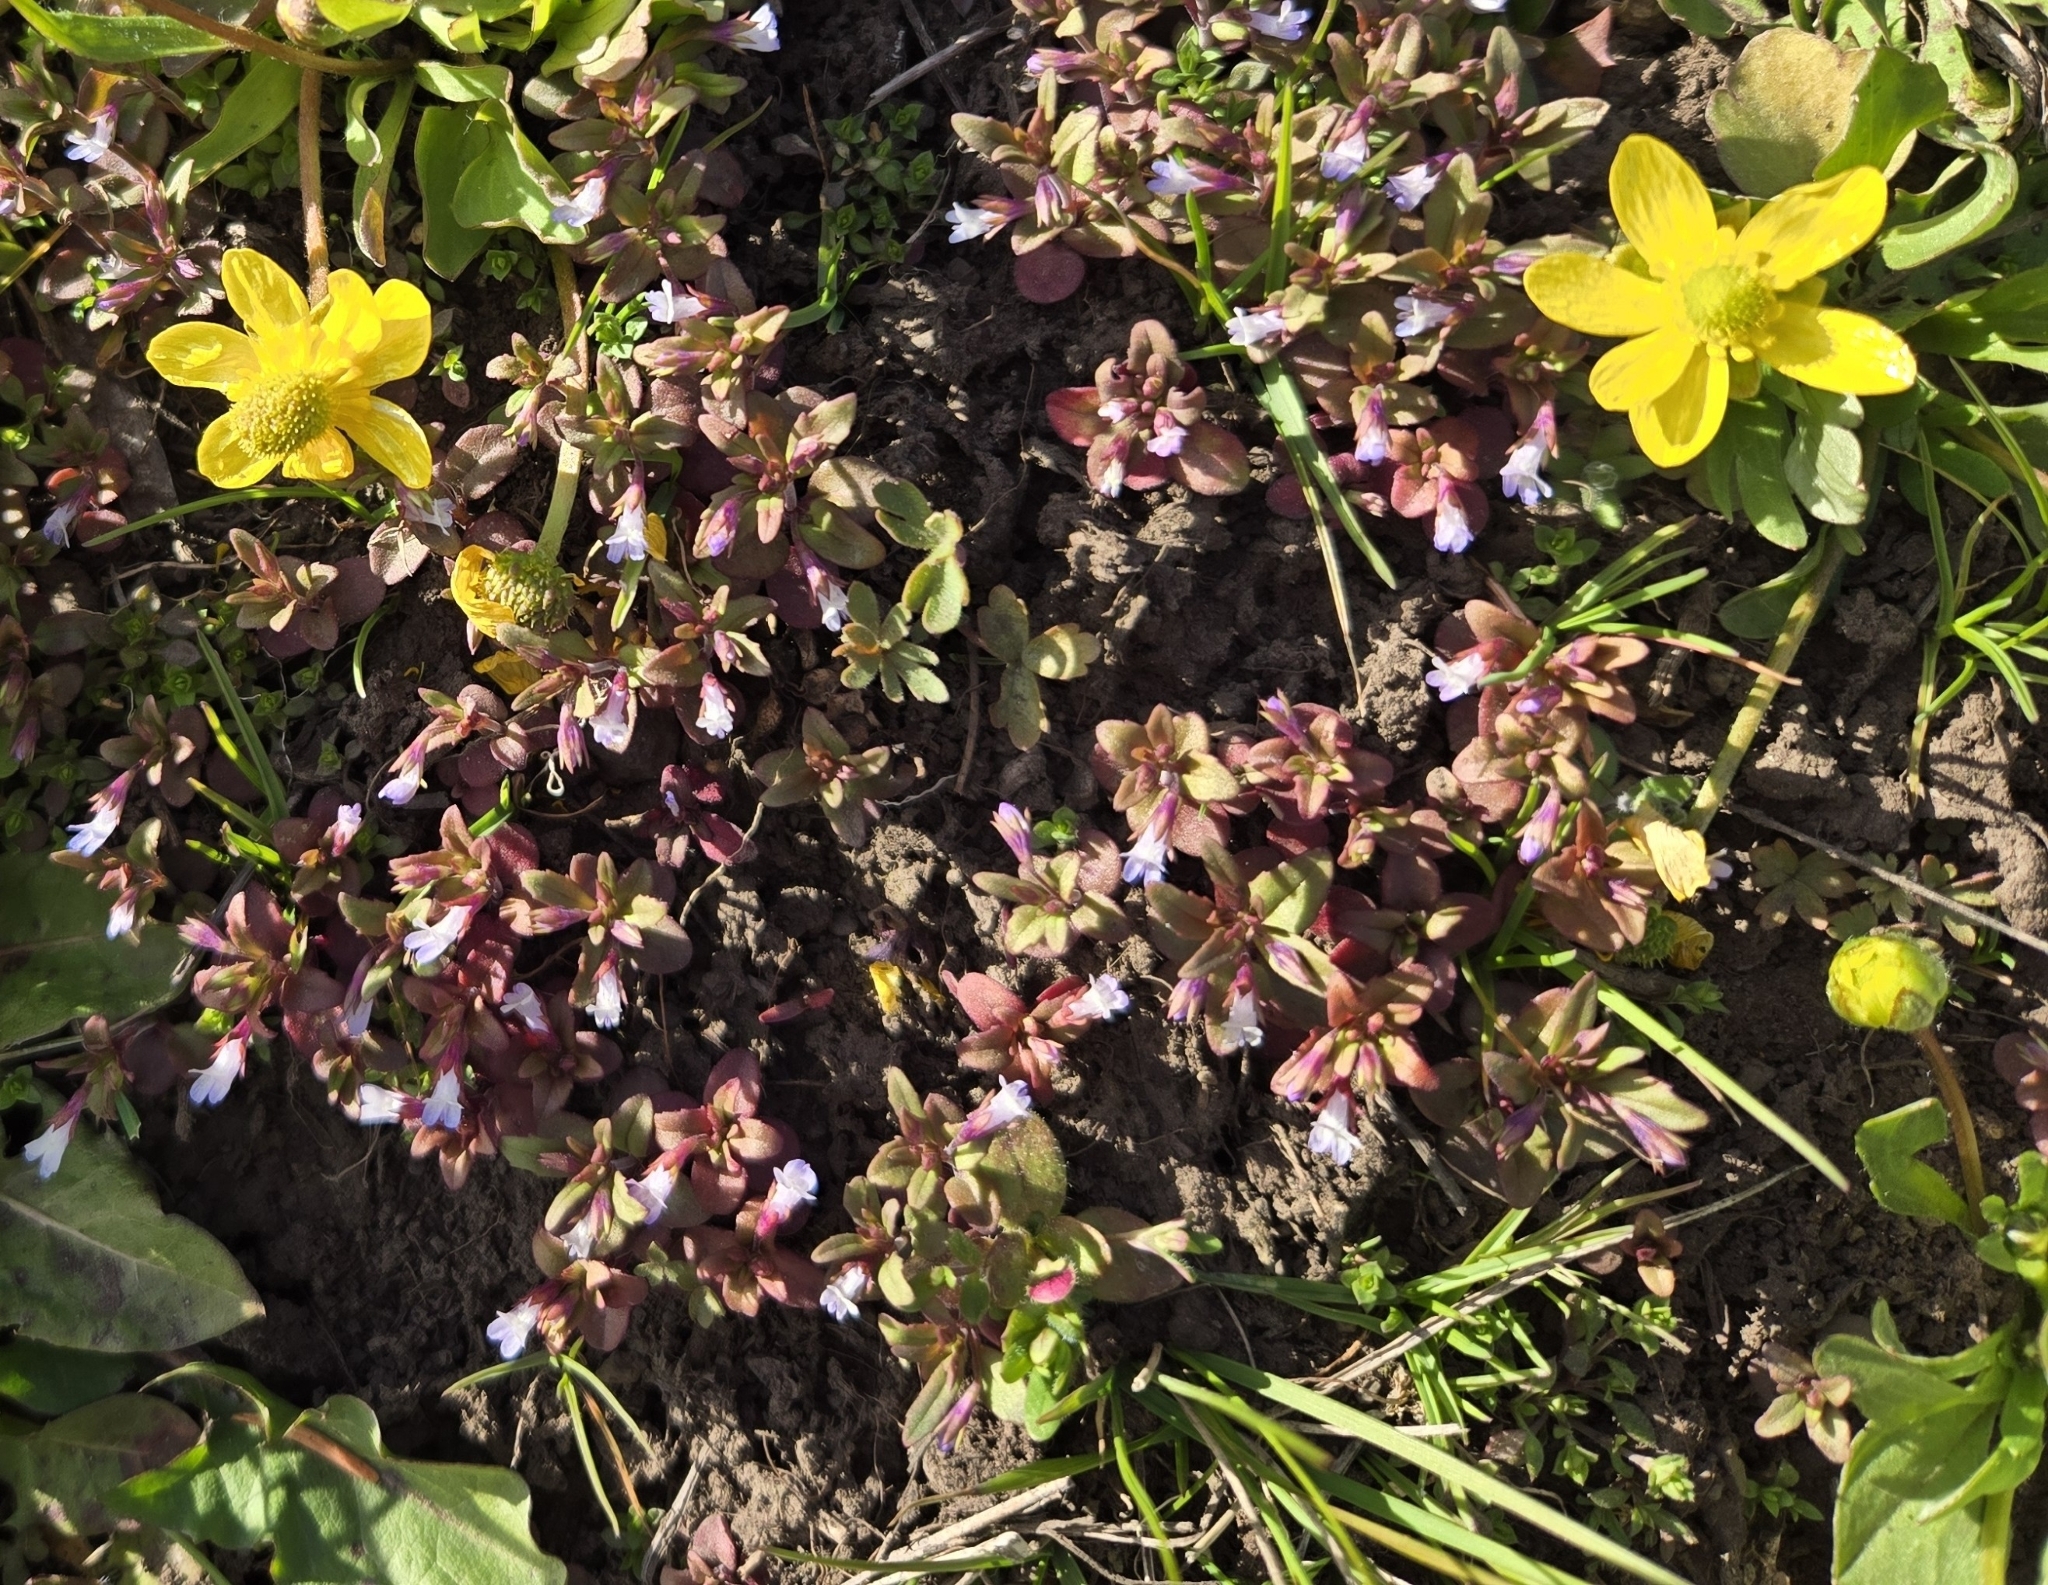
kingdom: Plantae
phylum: Tracheophyta
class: Magnoliopsida
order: Lamiales
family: Plantaginaceae
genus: Collinsia
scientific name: Collinsia parviflora
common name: Blue-lips
